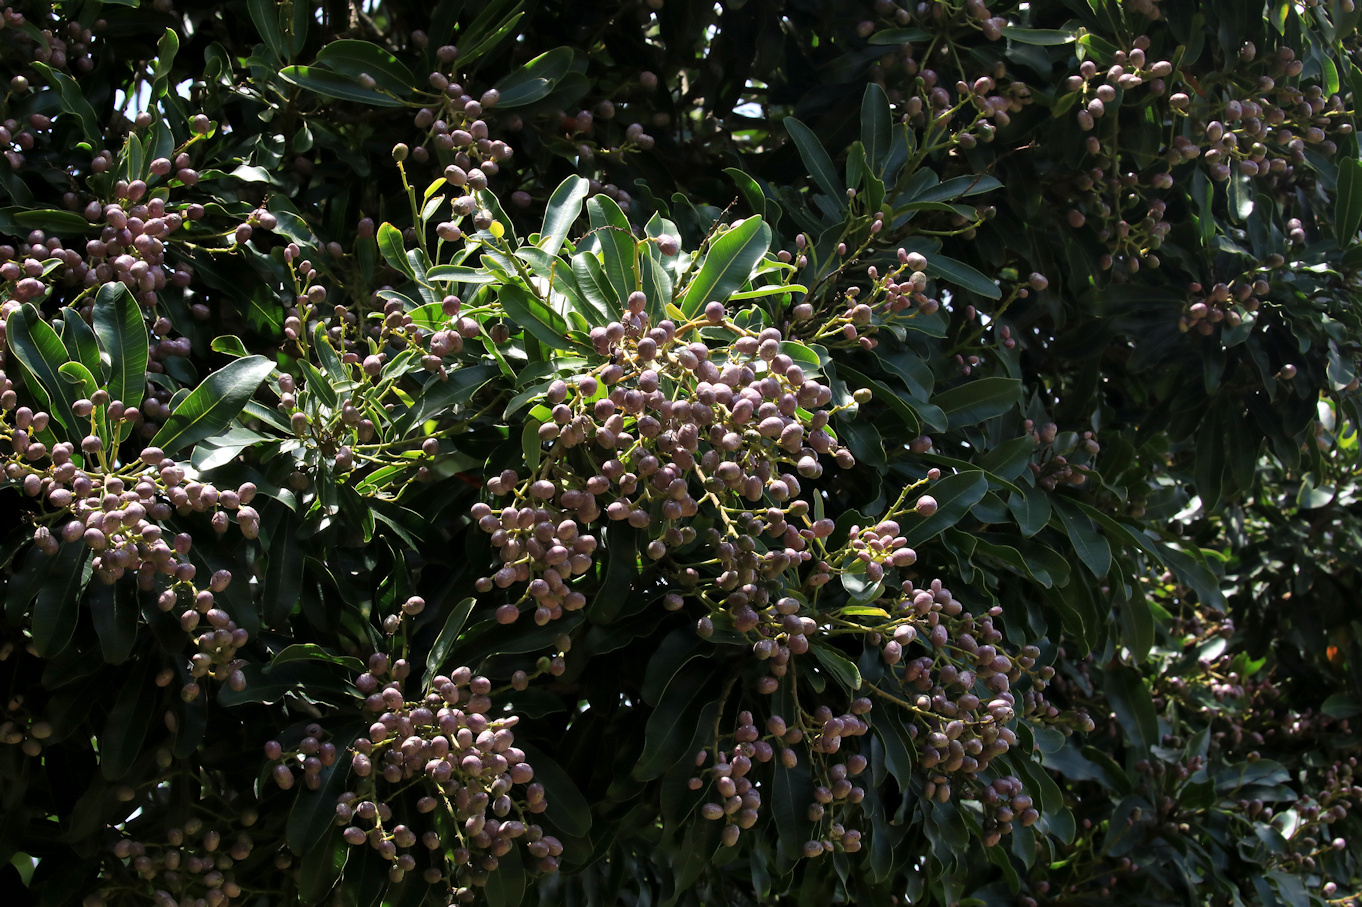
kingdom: Plantae
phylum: Tracheophyta
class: Magnoliopsida
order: Sapindales
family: Anacardiaceae
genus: Protorhus
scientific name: Protorhus longifolia
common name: Red-beech
